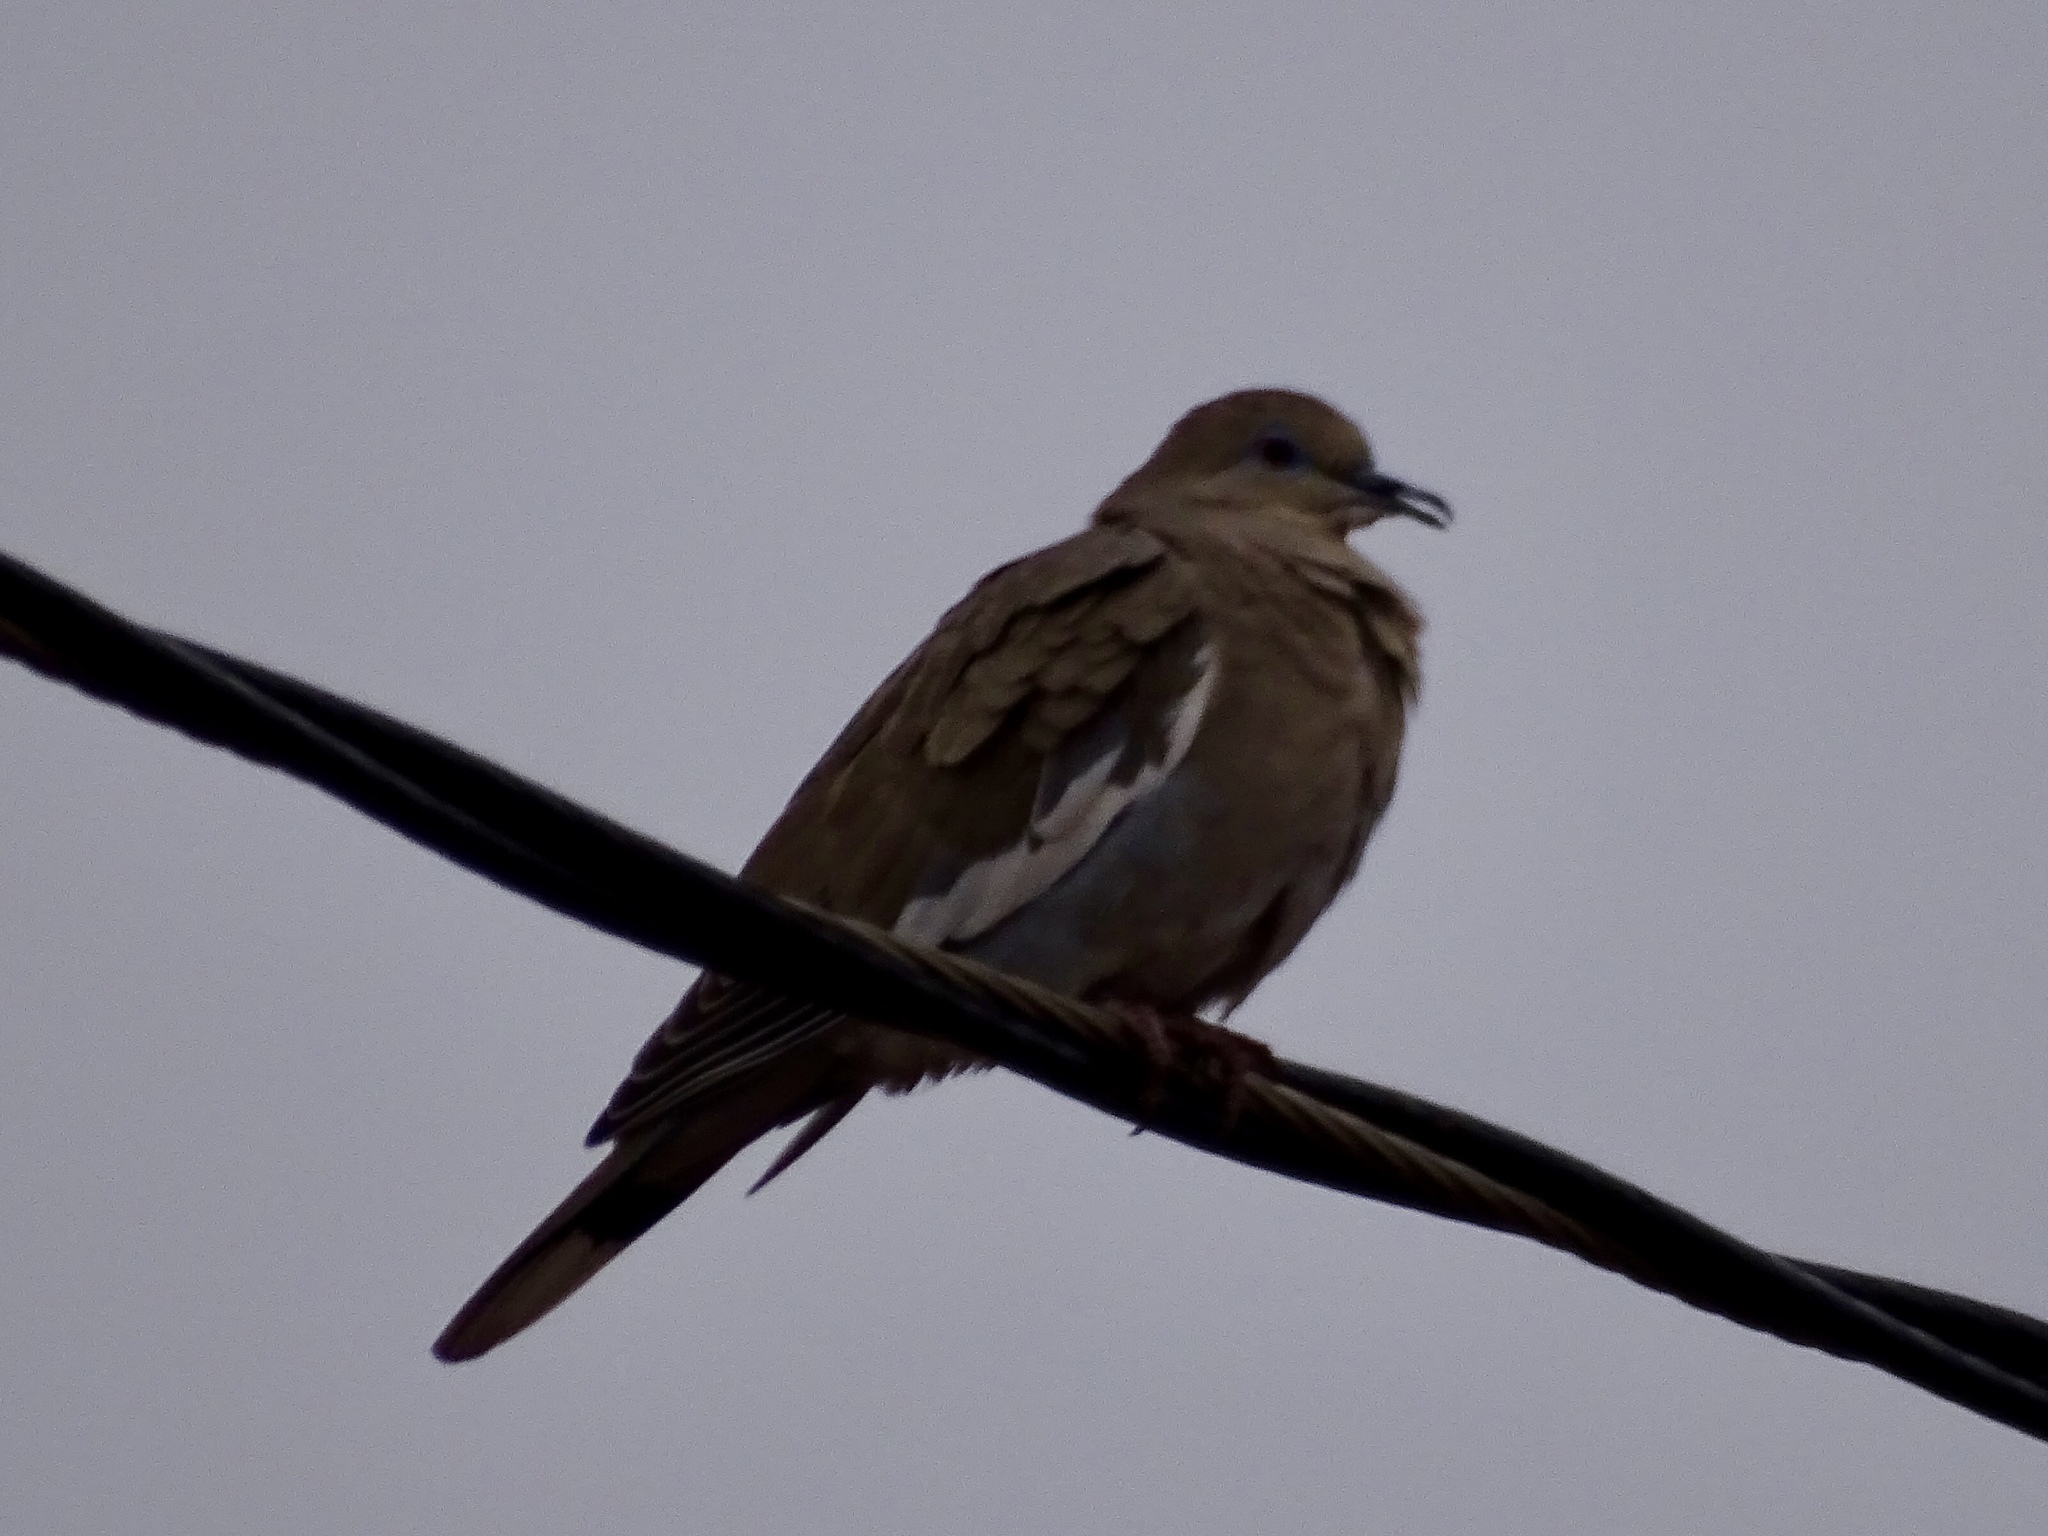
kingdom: Animalia
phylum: Chordata
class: Aves
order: Columbiformes
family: Columbidae
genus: Zenaida
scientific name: Zenaida asiatica
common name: White-winged dove
